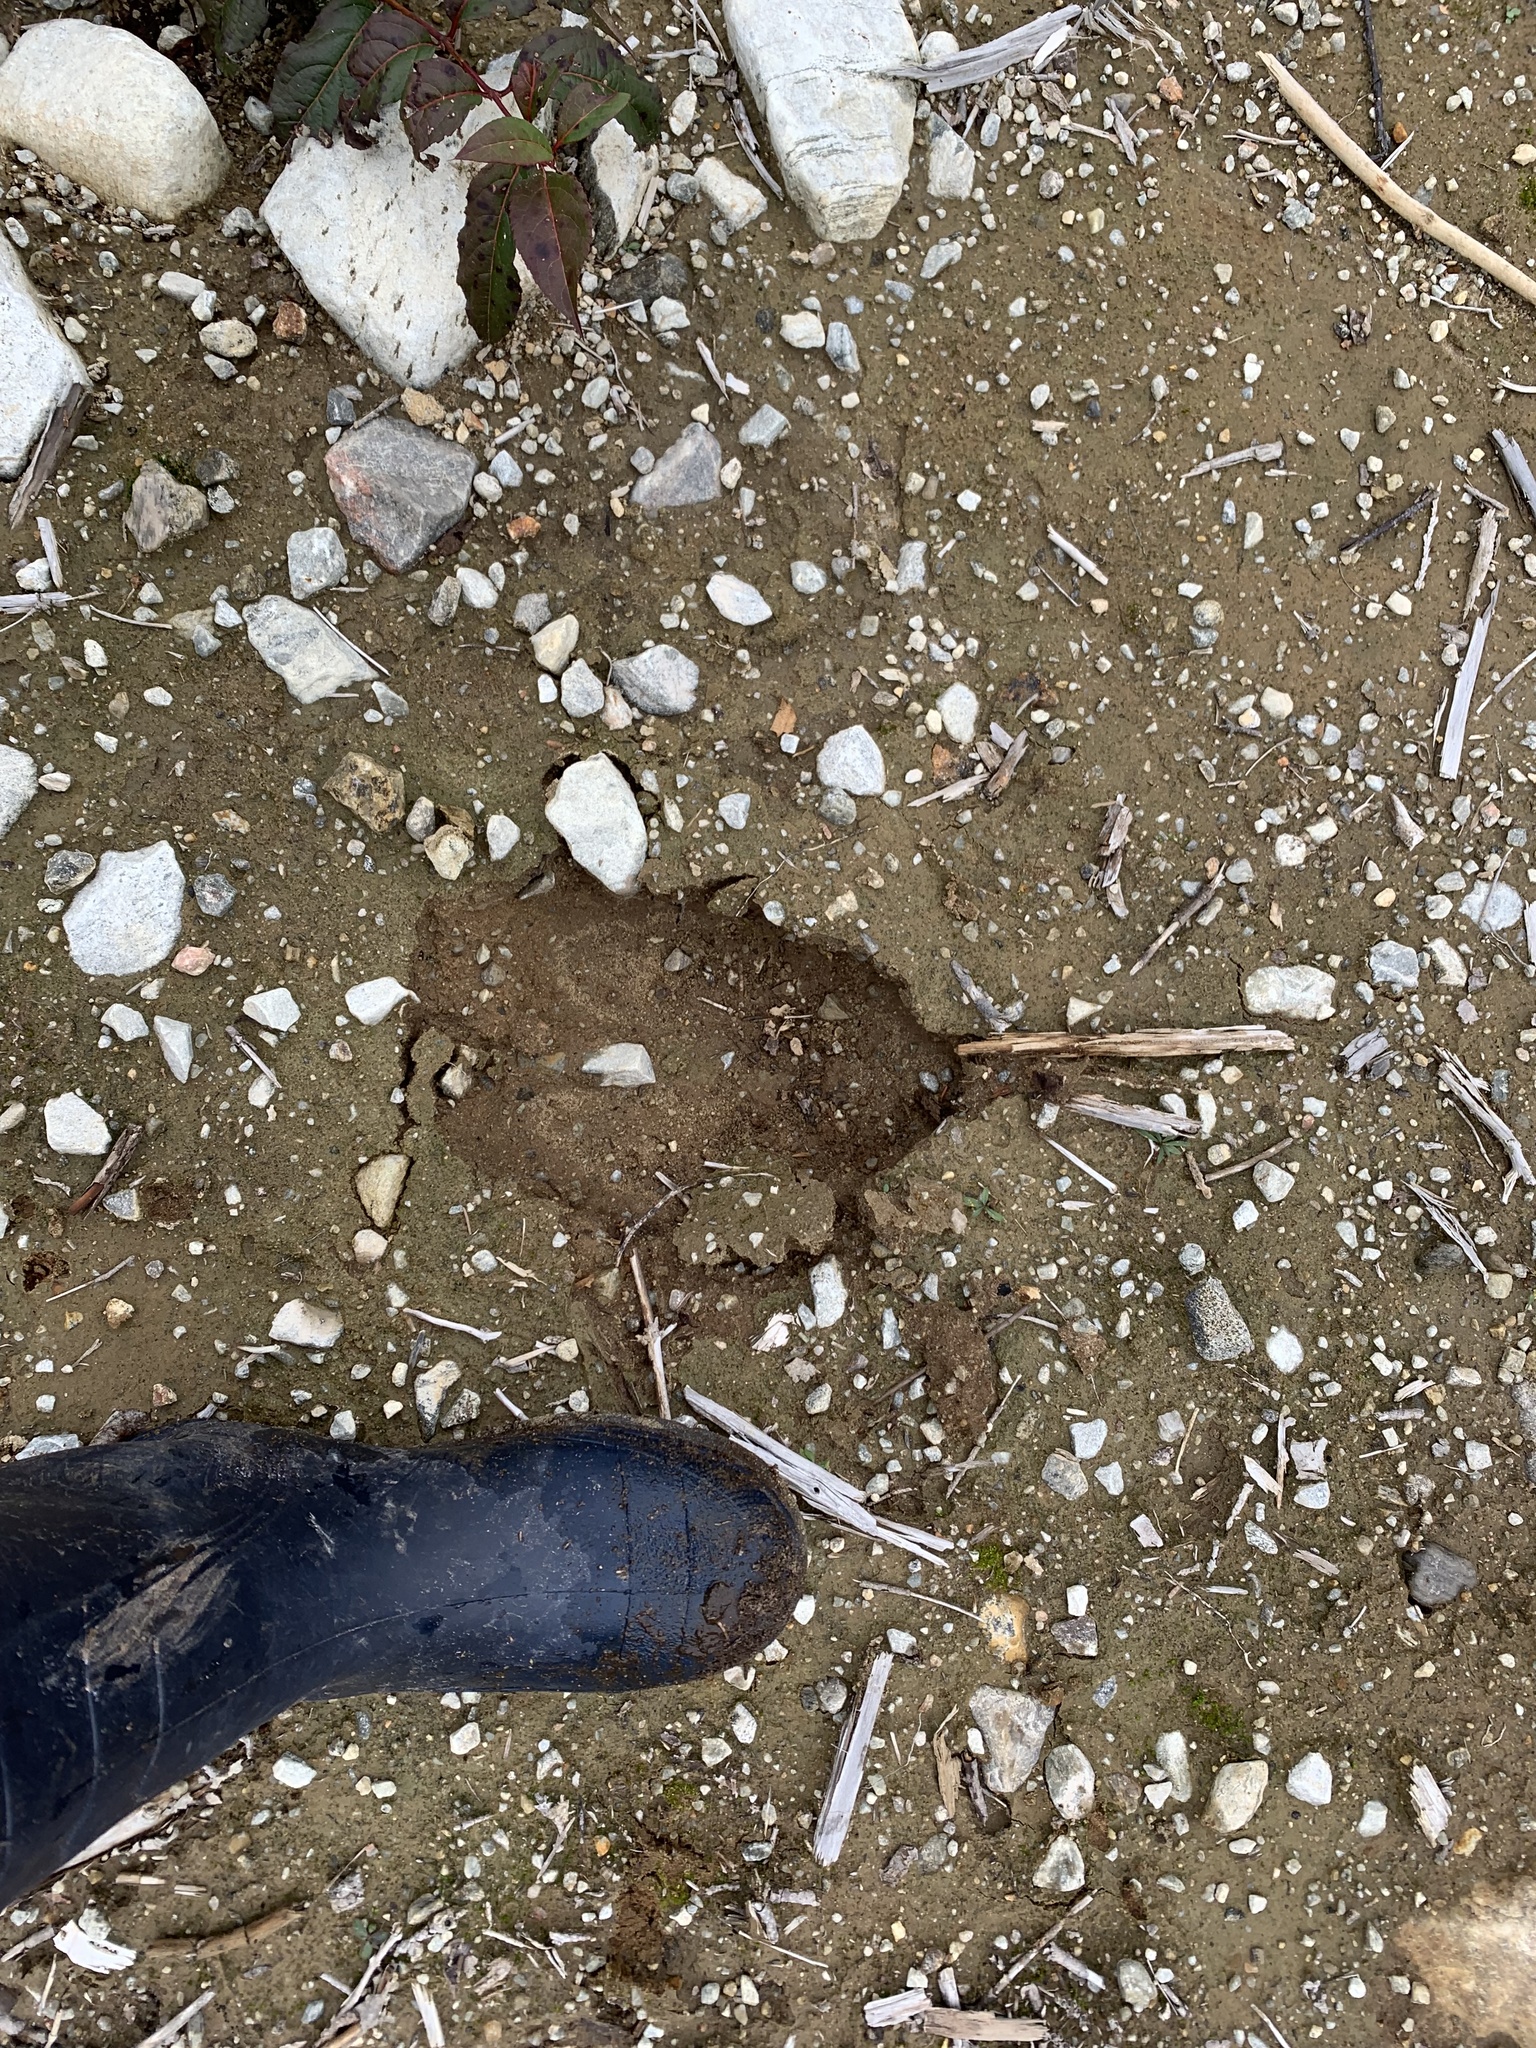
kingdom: Animalia
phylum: Chordata
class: Mammalia
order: Artiodactyla
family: Cervidae
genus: Alces
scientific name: Alces alces
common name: Moose
